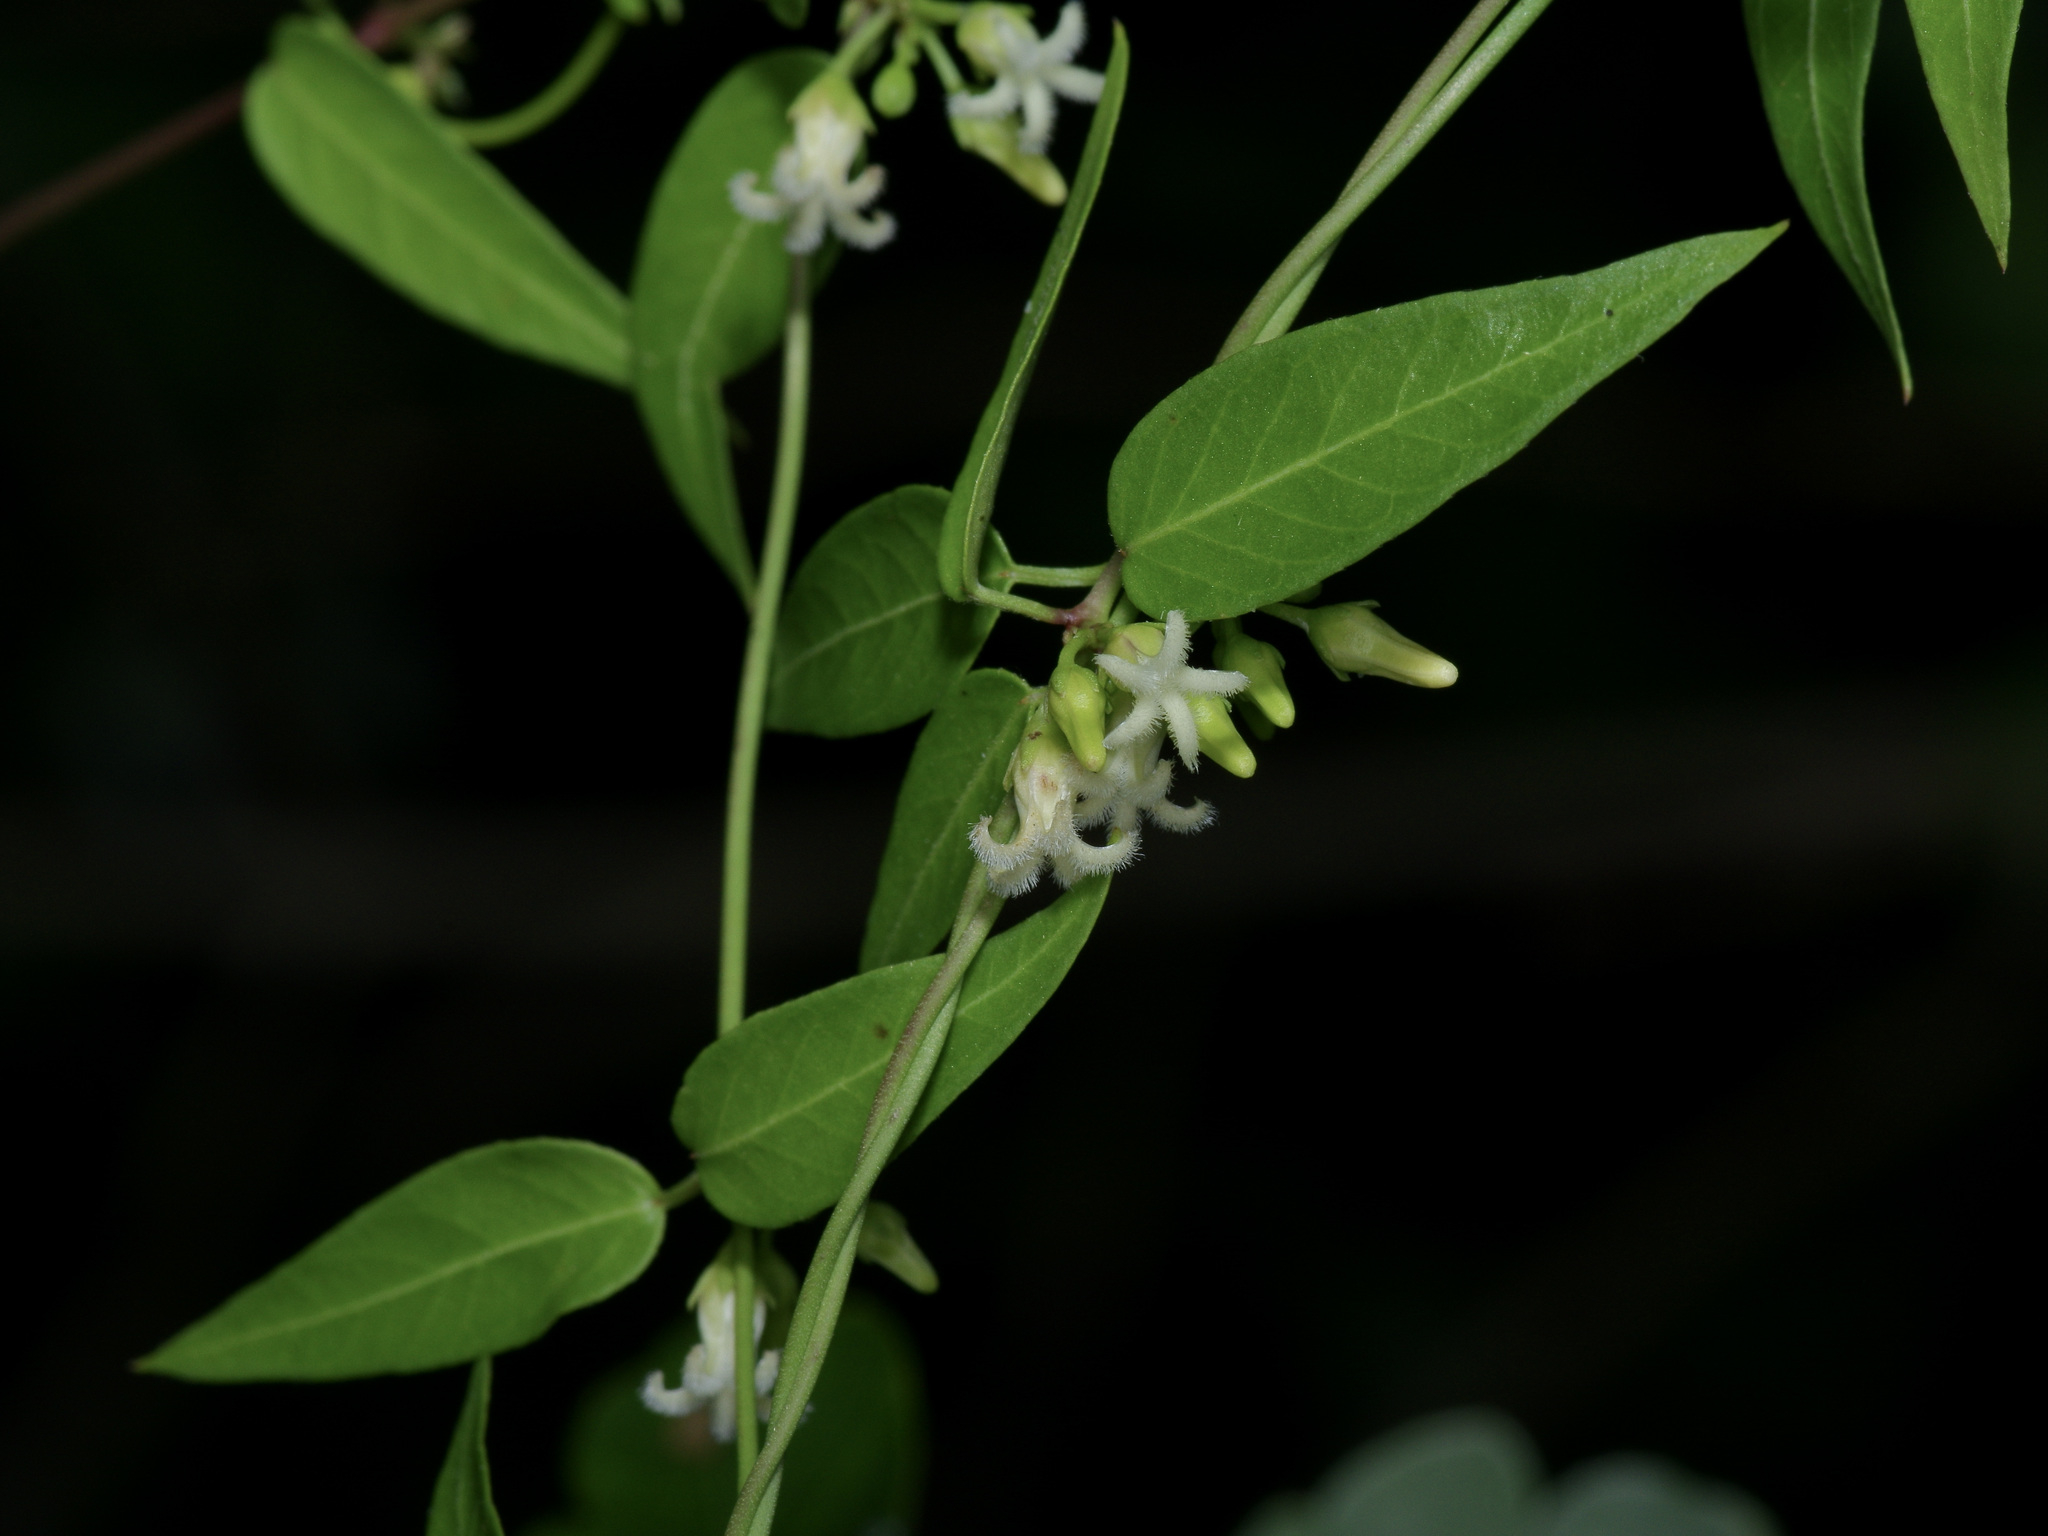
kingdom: Plantae
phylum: Tracheophyta
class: Magnoliopsida
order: Gentianales
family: Apocynaceae
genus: Metastelma
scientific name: Metastelma barbigerum
